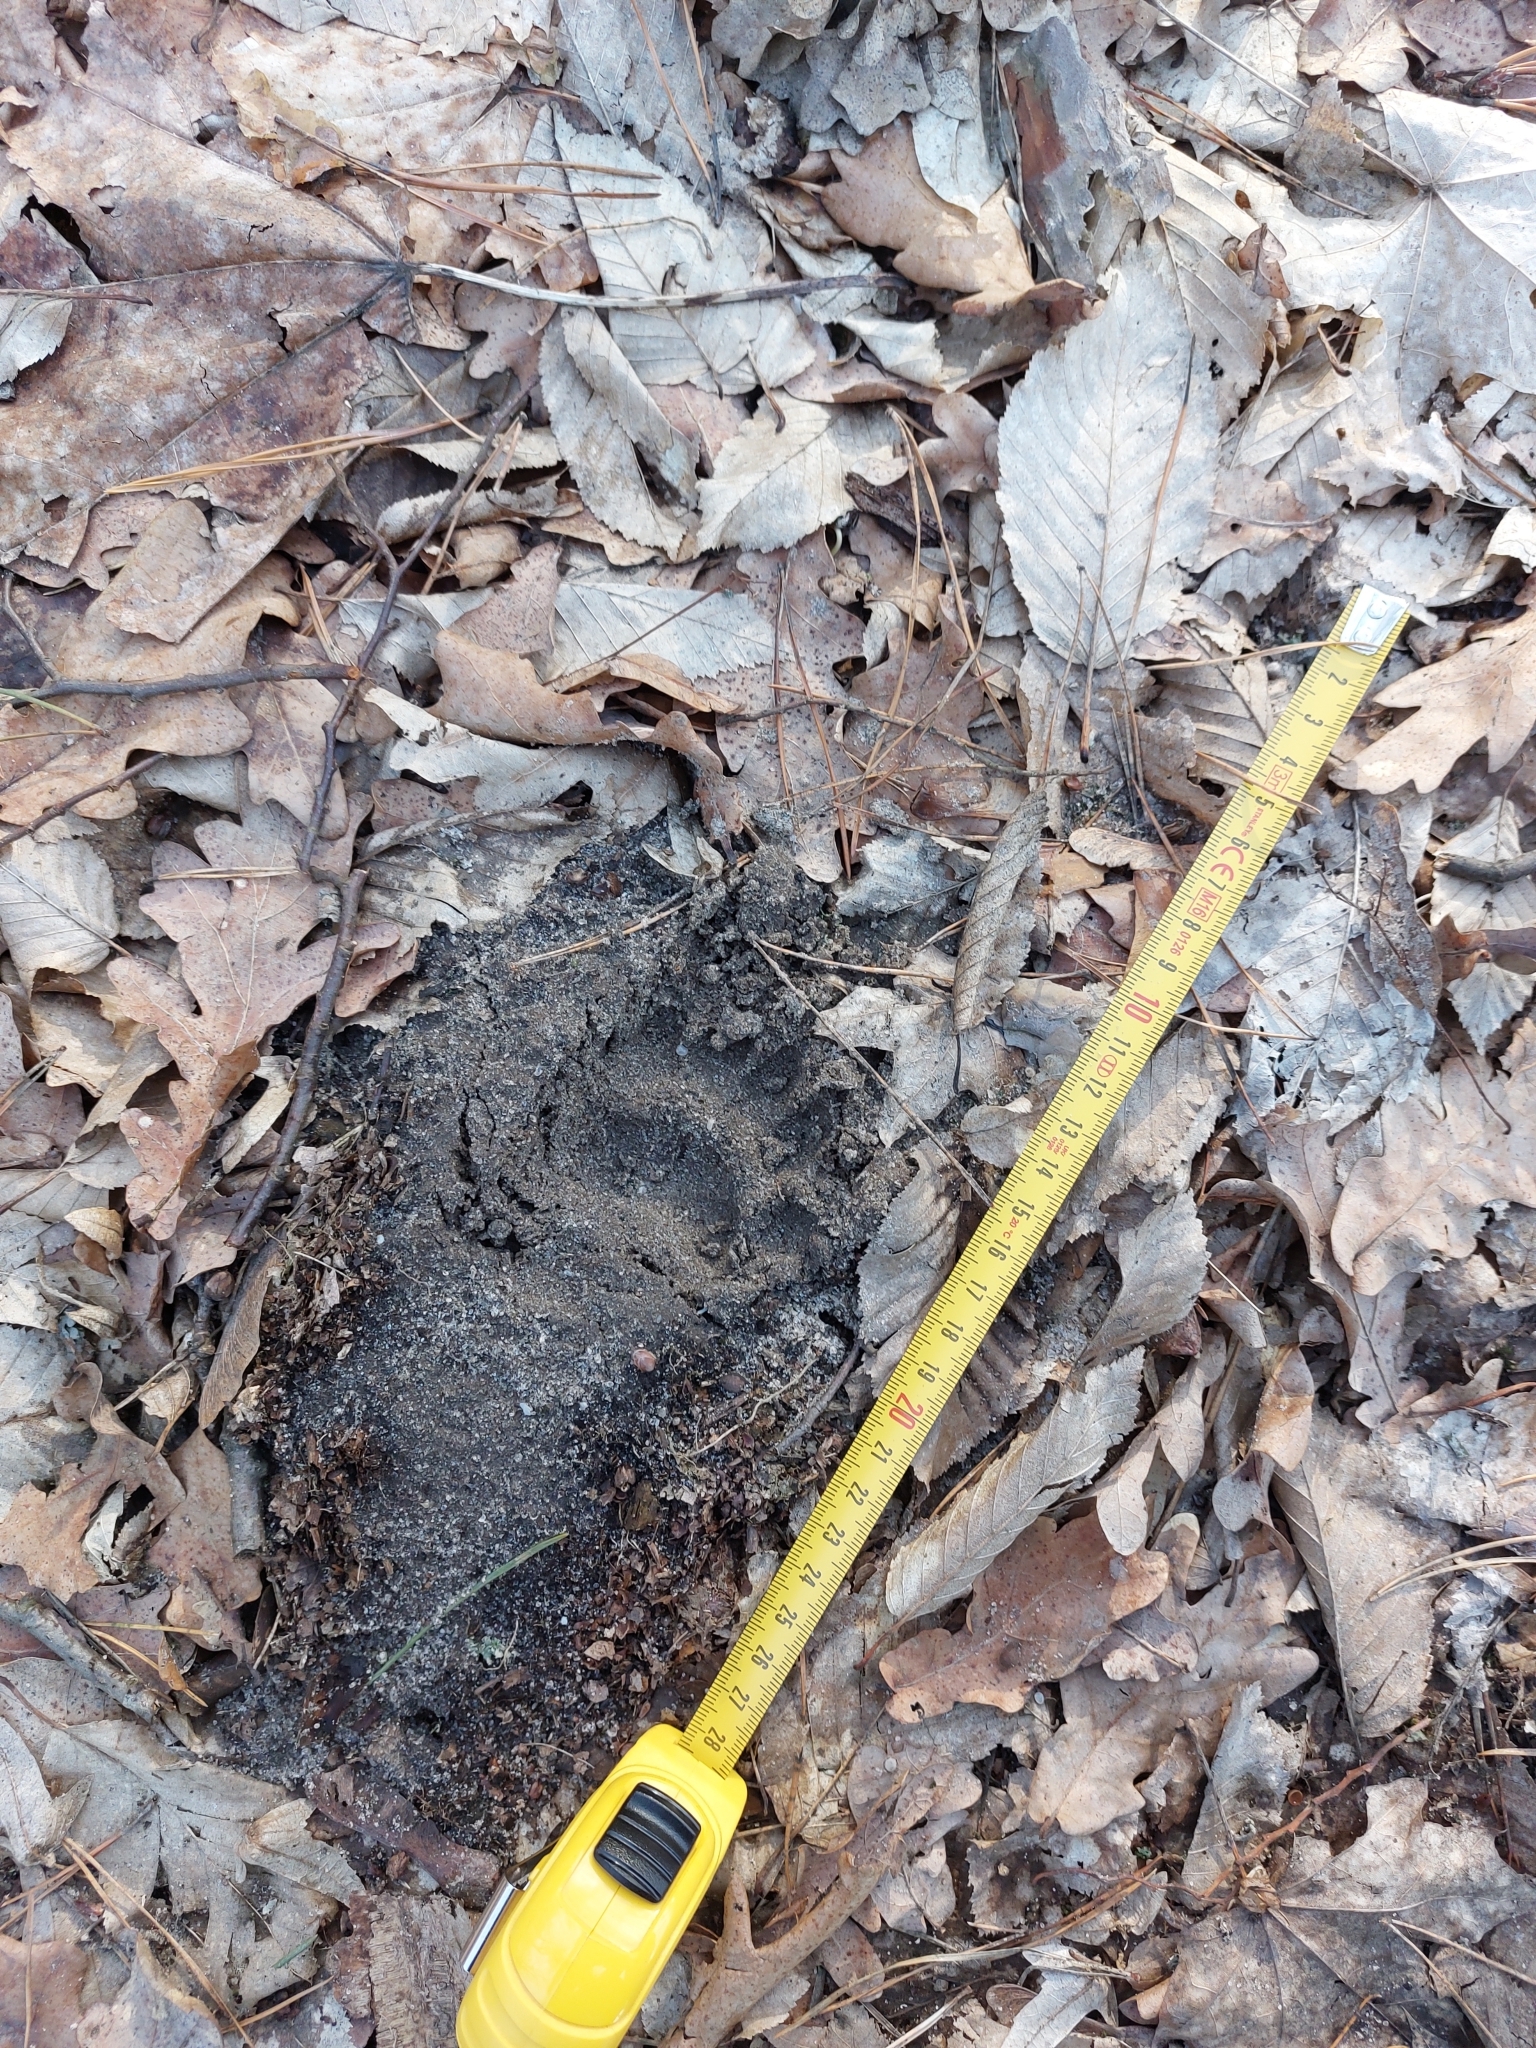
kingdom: Animalia
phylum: Chordata
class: Mammalia
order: Carnivora
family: Mustelidae
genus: Meles
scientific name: Meles meles
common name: Eurasian badger
